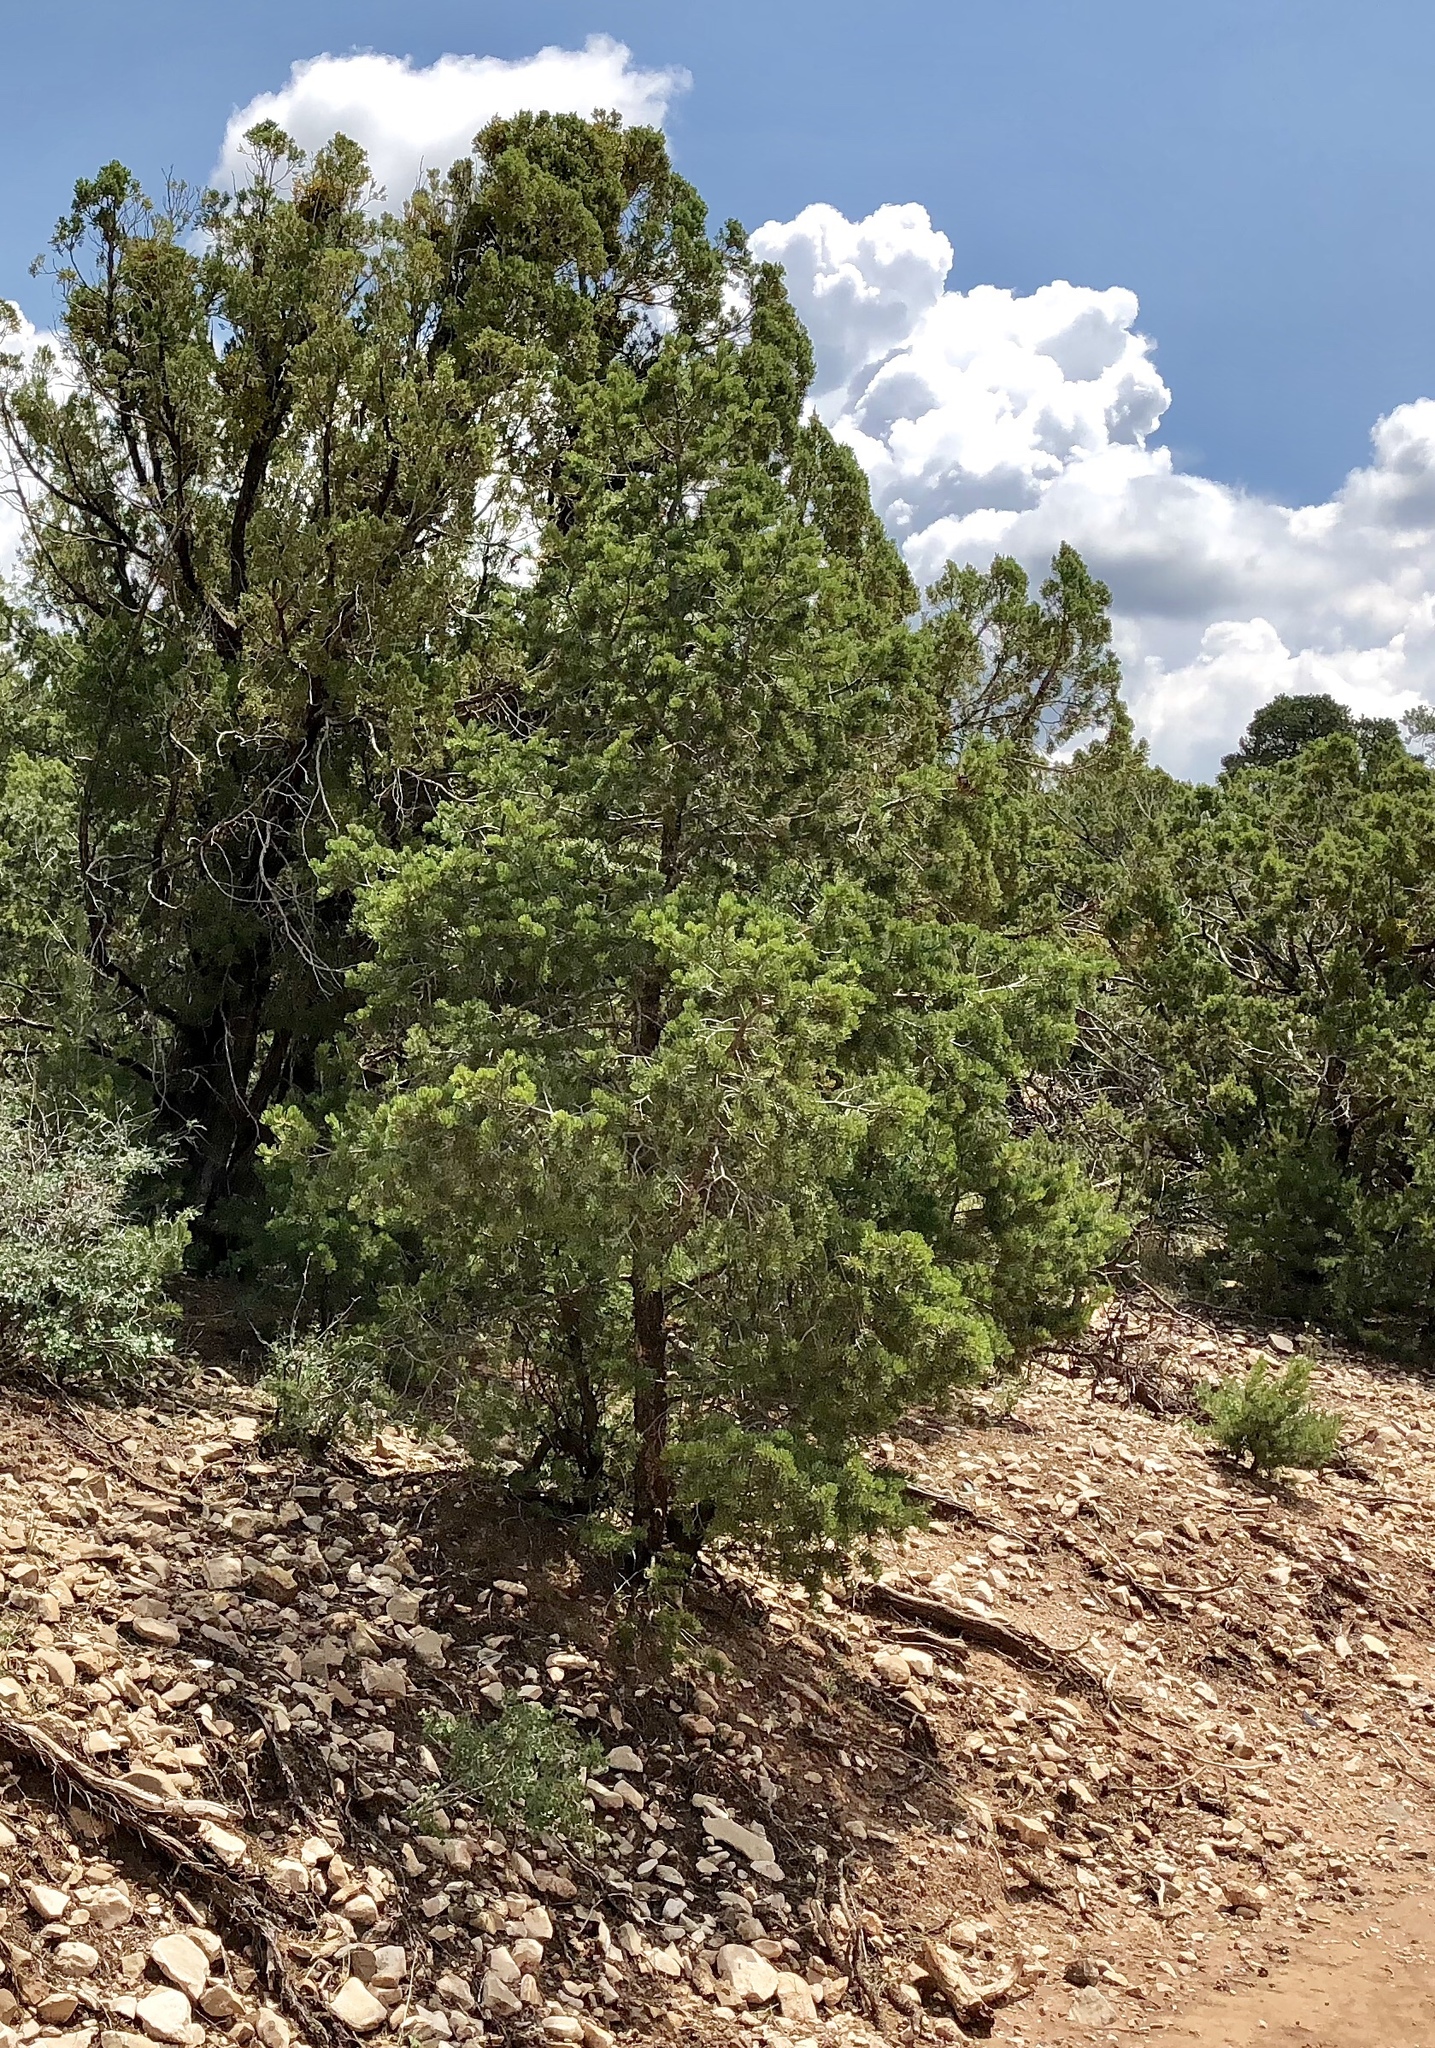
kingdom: Plantae
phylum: Tracheophyta
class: Pinopsida
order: Pinales
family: Pinaceae
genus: Pinus
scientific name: Pinus edulis
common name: Colorado pinyon
